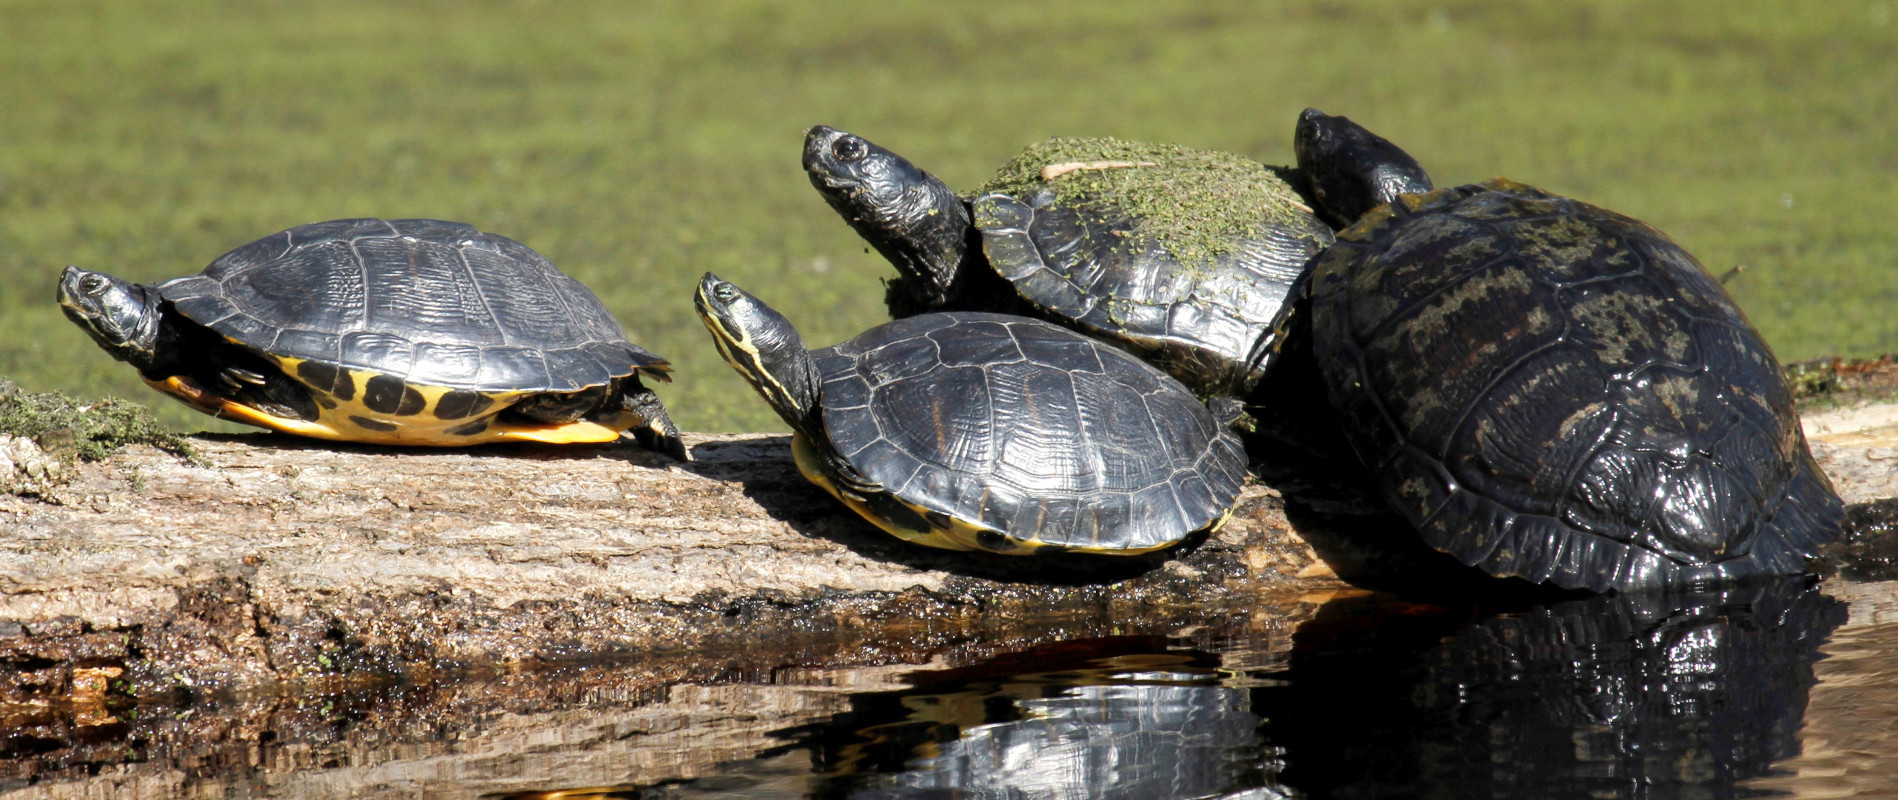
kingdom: Animalia
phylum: Chordata
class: Testudines
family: Emydidae
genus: Trachemys
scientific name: Trachemys scripta
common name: Slider
